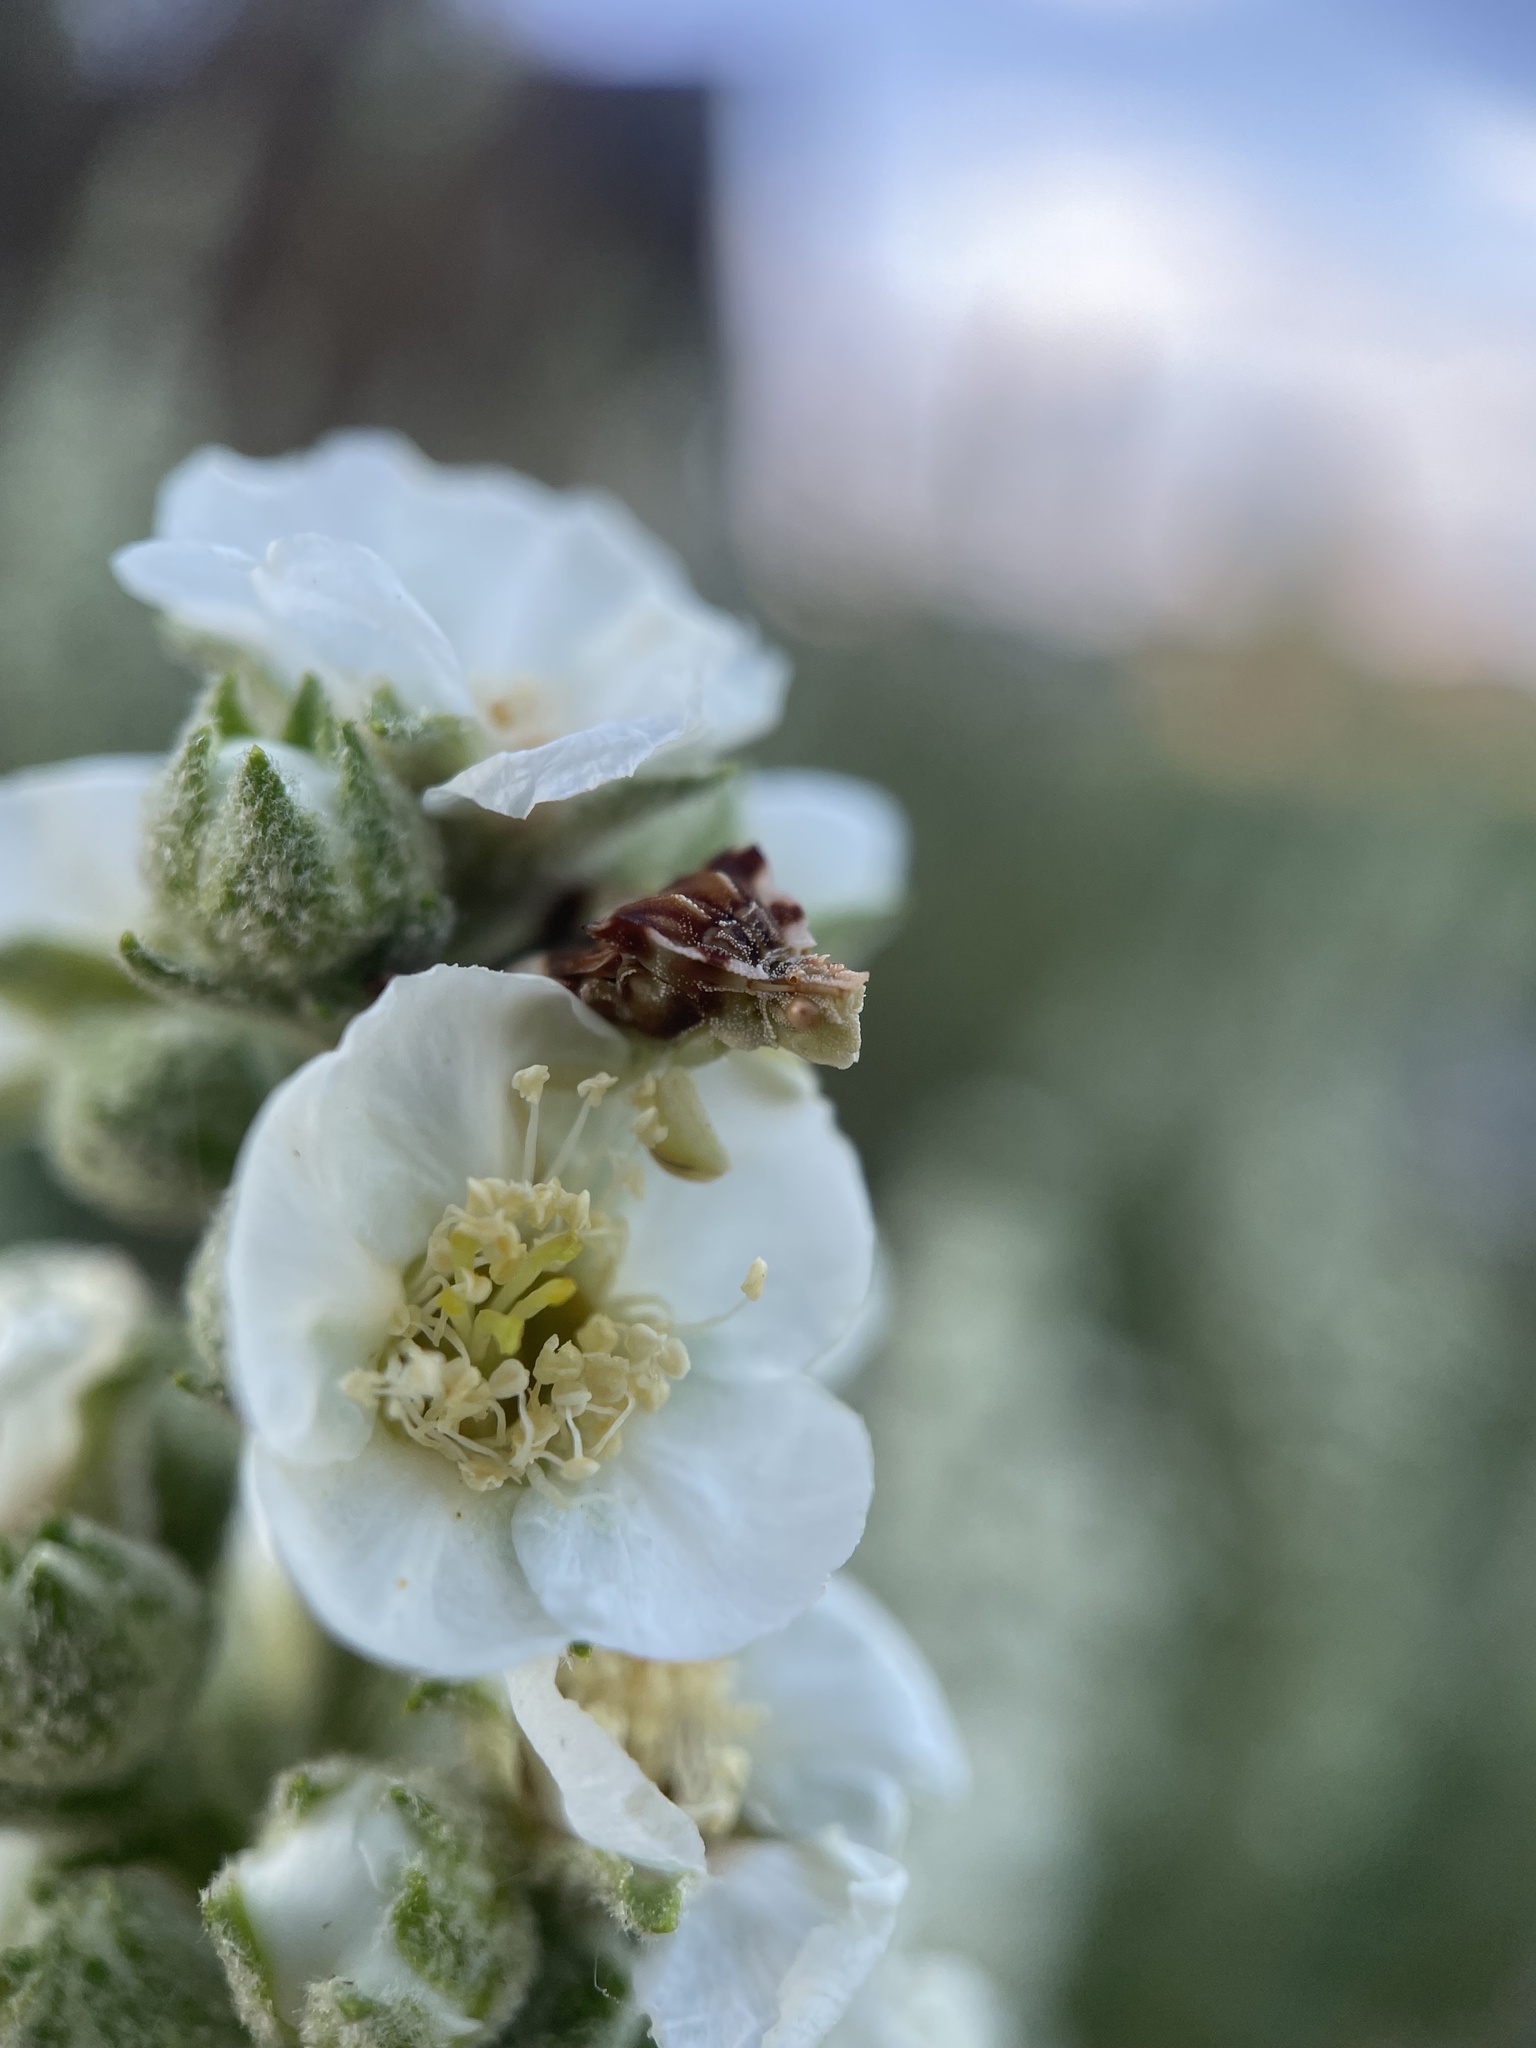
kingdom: Animalia
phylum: Arthropoda
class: Insecta
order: Hemiptera
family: Reduviidae
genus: Phymata
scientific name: Phymata americana
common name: Jagged ambush bug
